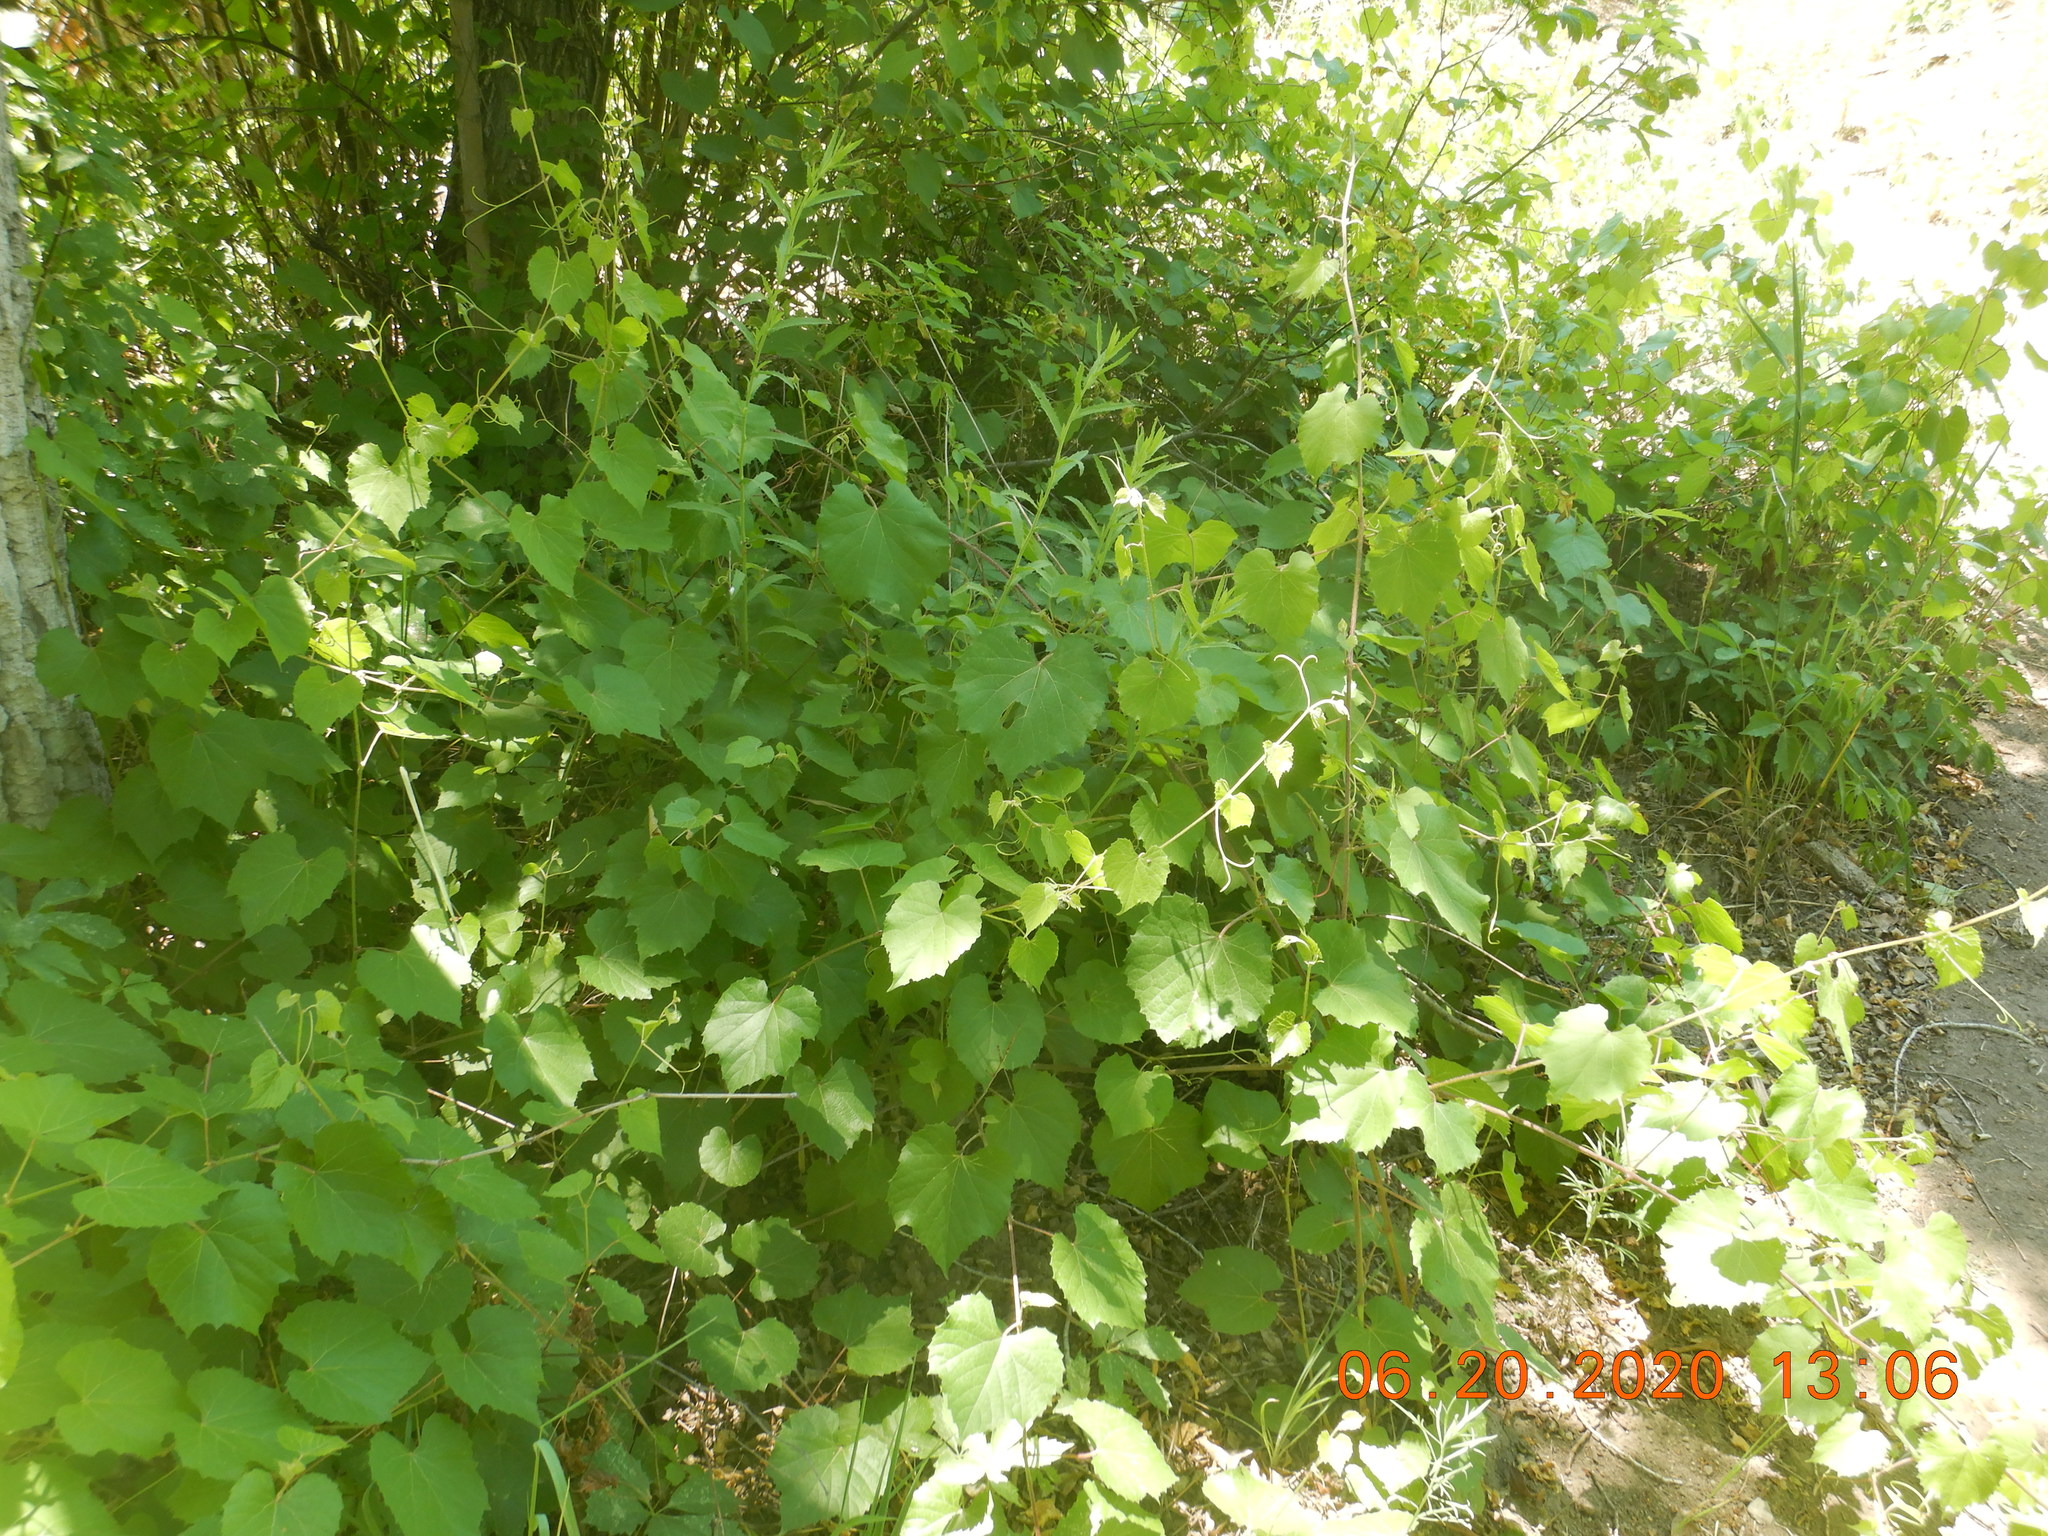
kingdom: Plantae
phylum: Tracheophyta
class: Magnoliopsida
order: Vitales
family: Vitaceae
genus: Vitis
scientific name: Vitis arizonica
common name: Canyon grape
